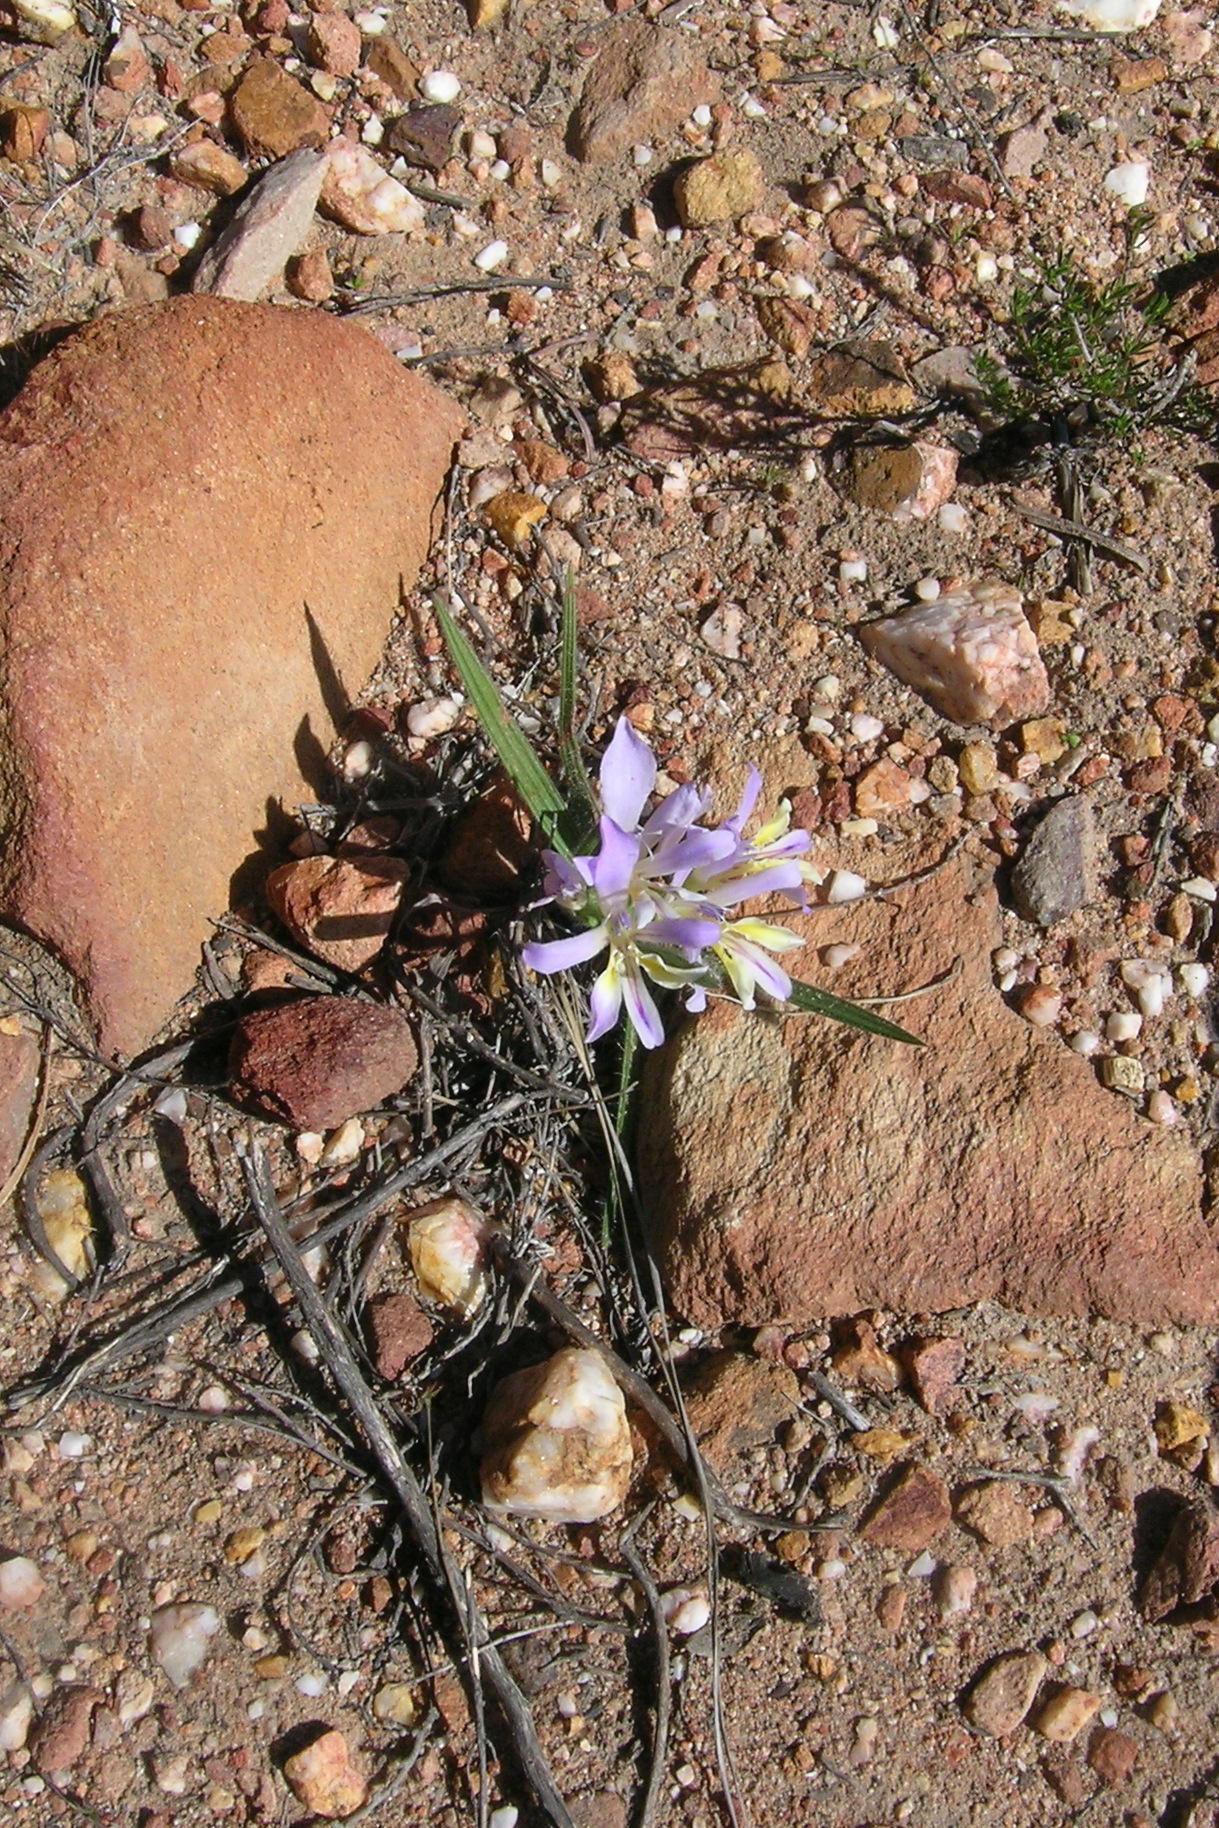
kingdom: Plantae
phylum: Tracheophyta
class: Liliopsida
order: Asparagales
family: Iridaceae
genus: Babiana
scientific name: Babiana patula
